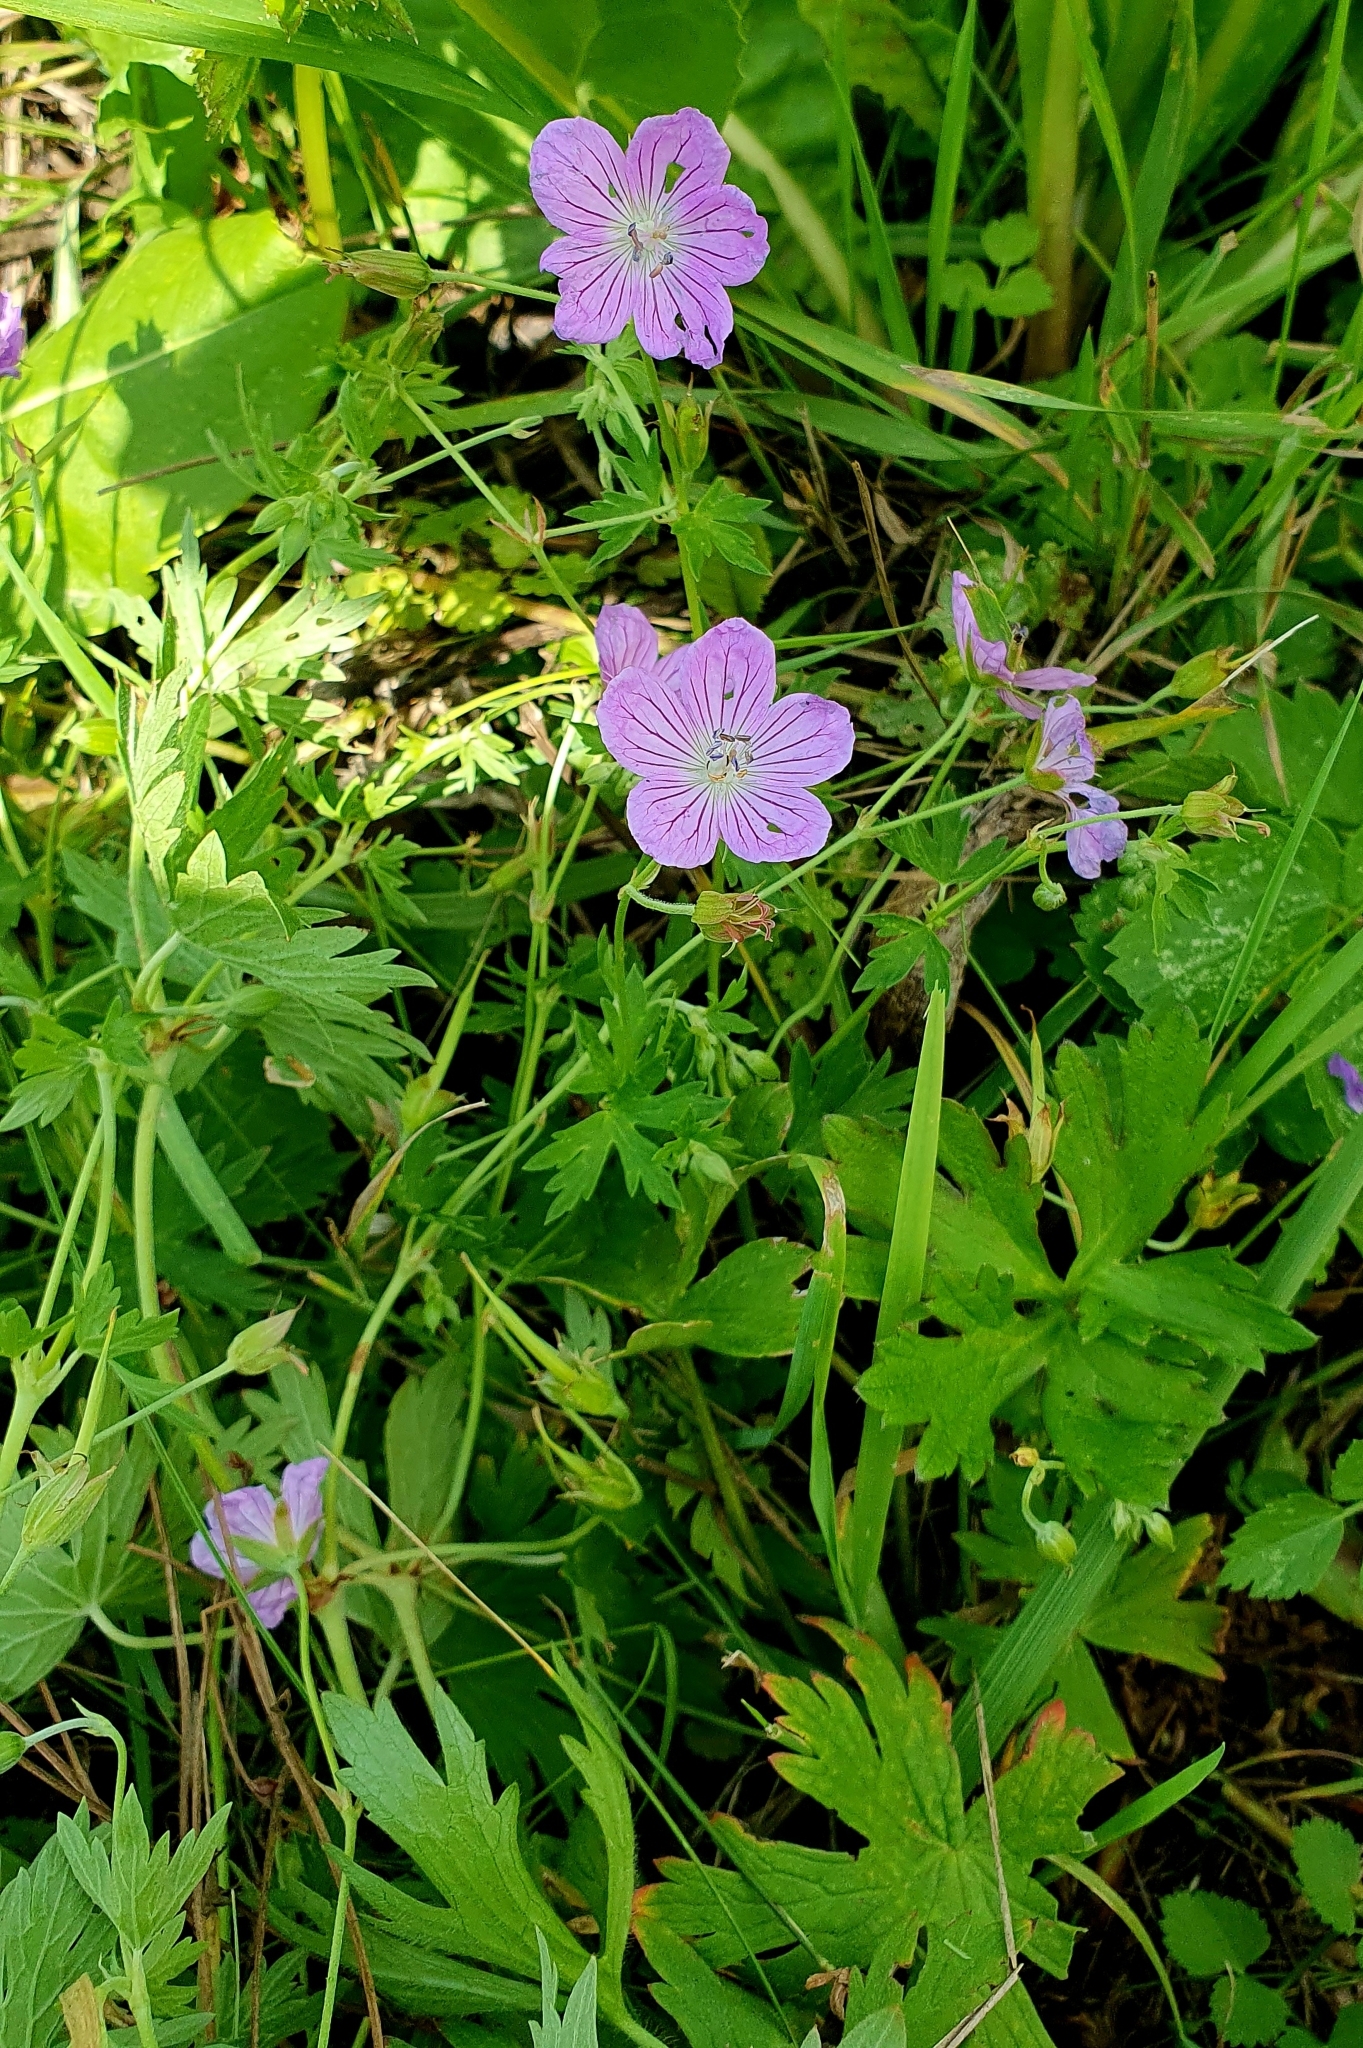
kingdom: Plantae
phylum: Tracheophyta
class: Magnoliopsida
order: Geraniales
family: Geraniaceae
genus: Geranium
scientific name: Geranium collinum
